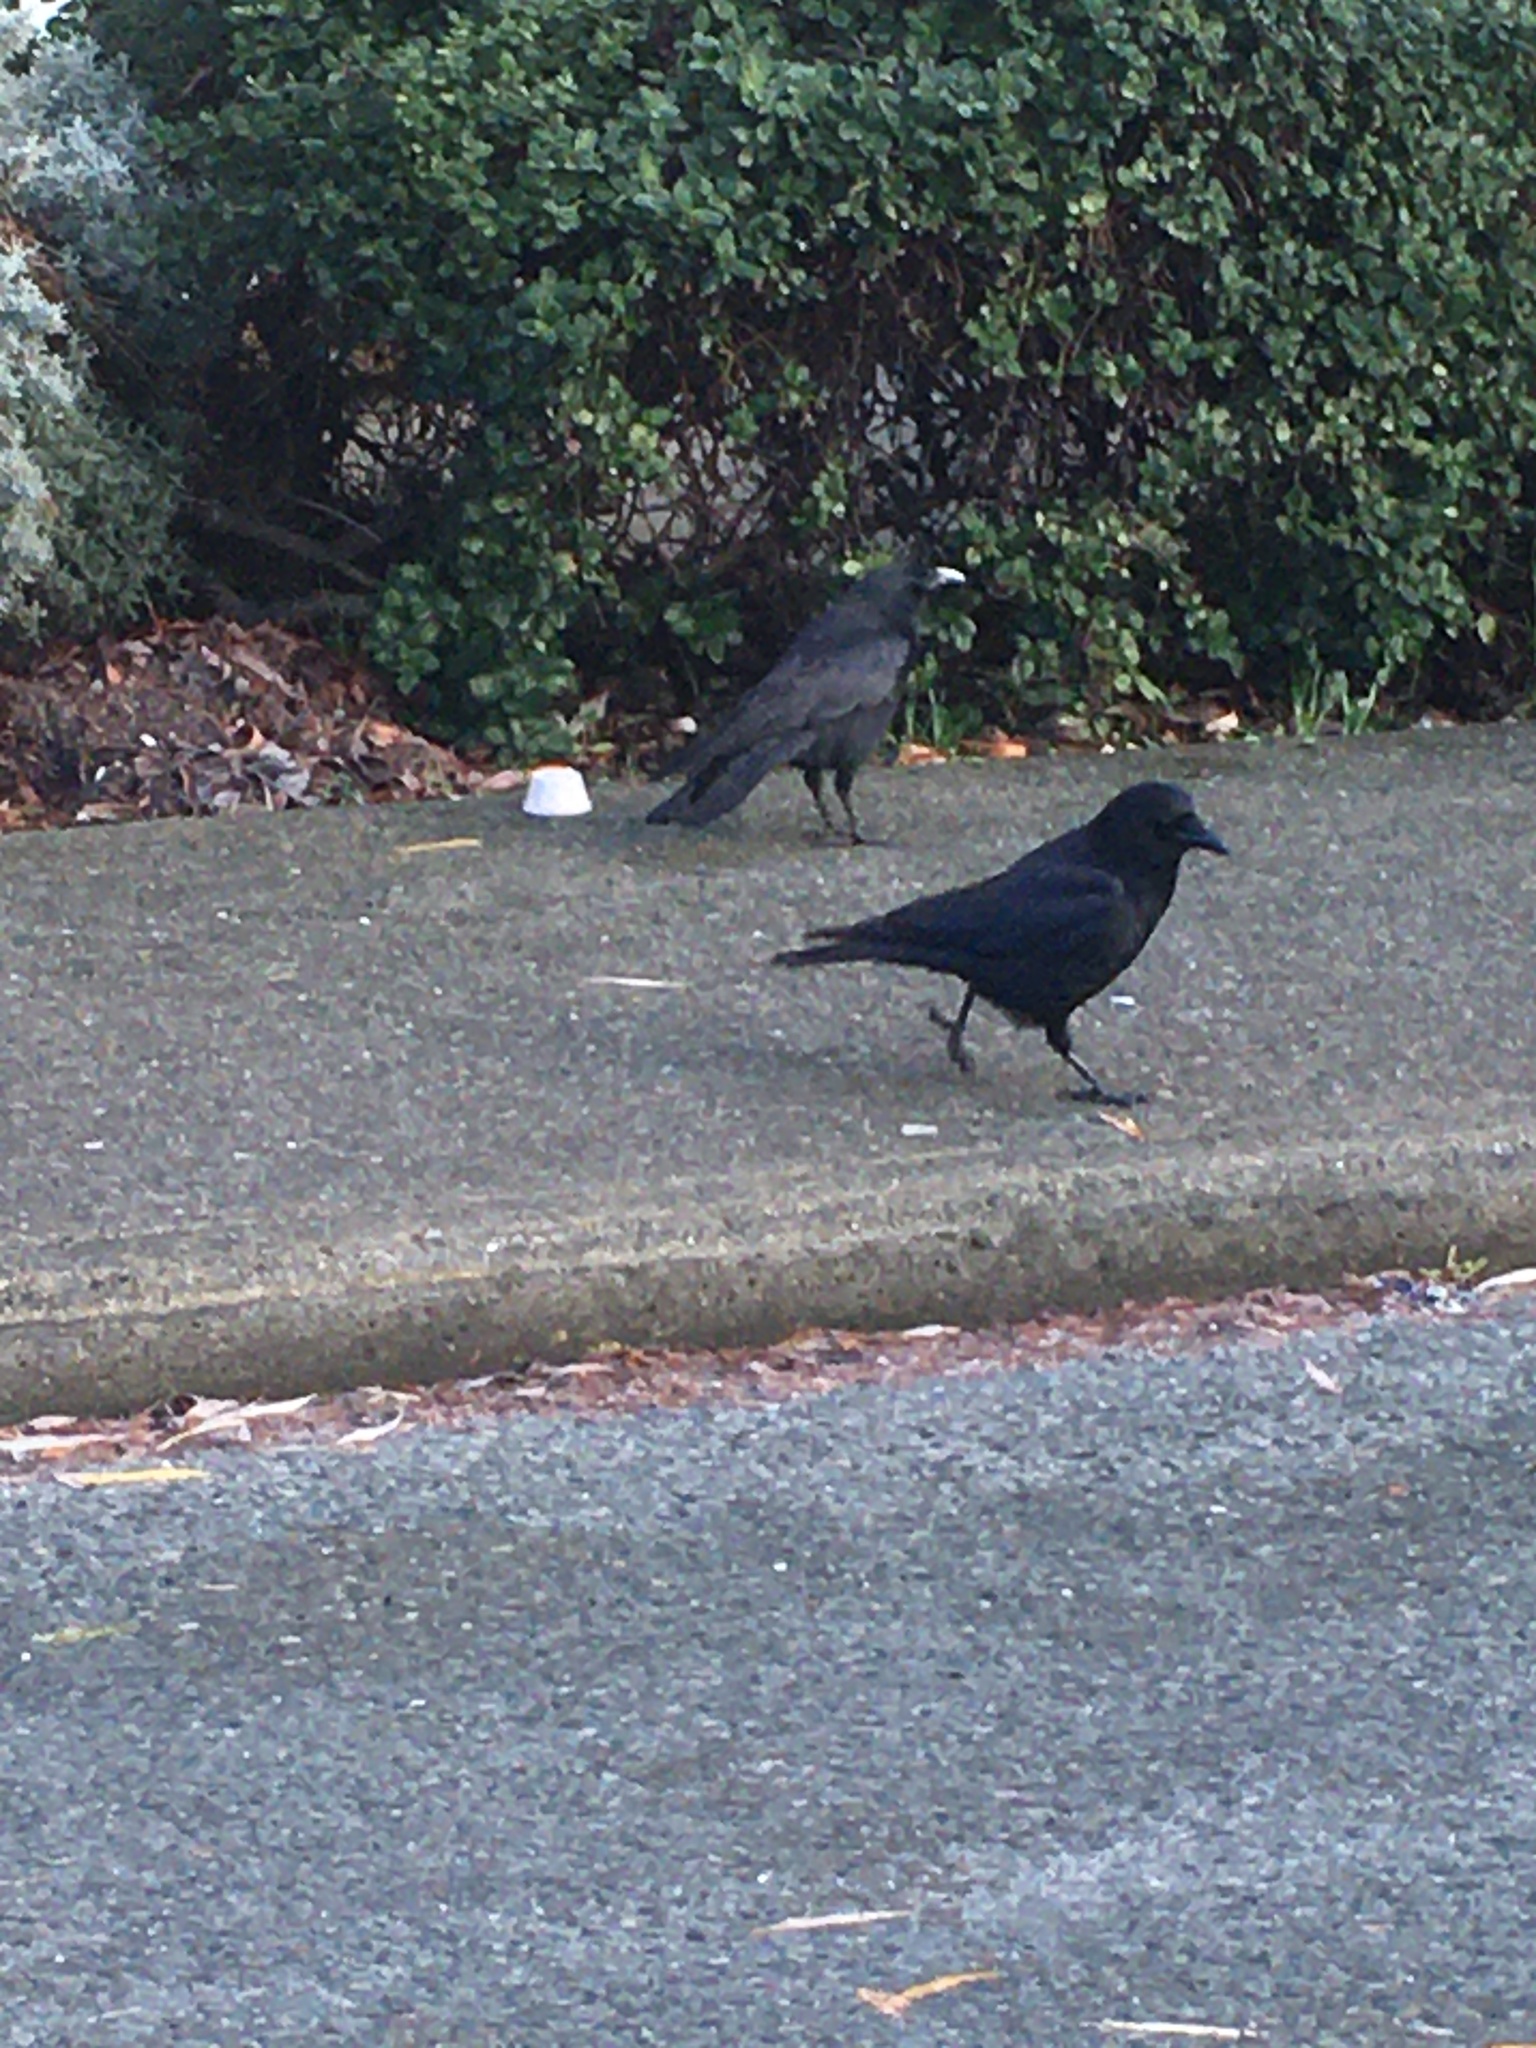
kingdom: Animalia
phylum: Chordata
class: Aves
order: Passeriformes
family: Corvidae
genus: Corvus
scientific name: Corvus brachyrhynchos
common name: American crow
